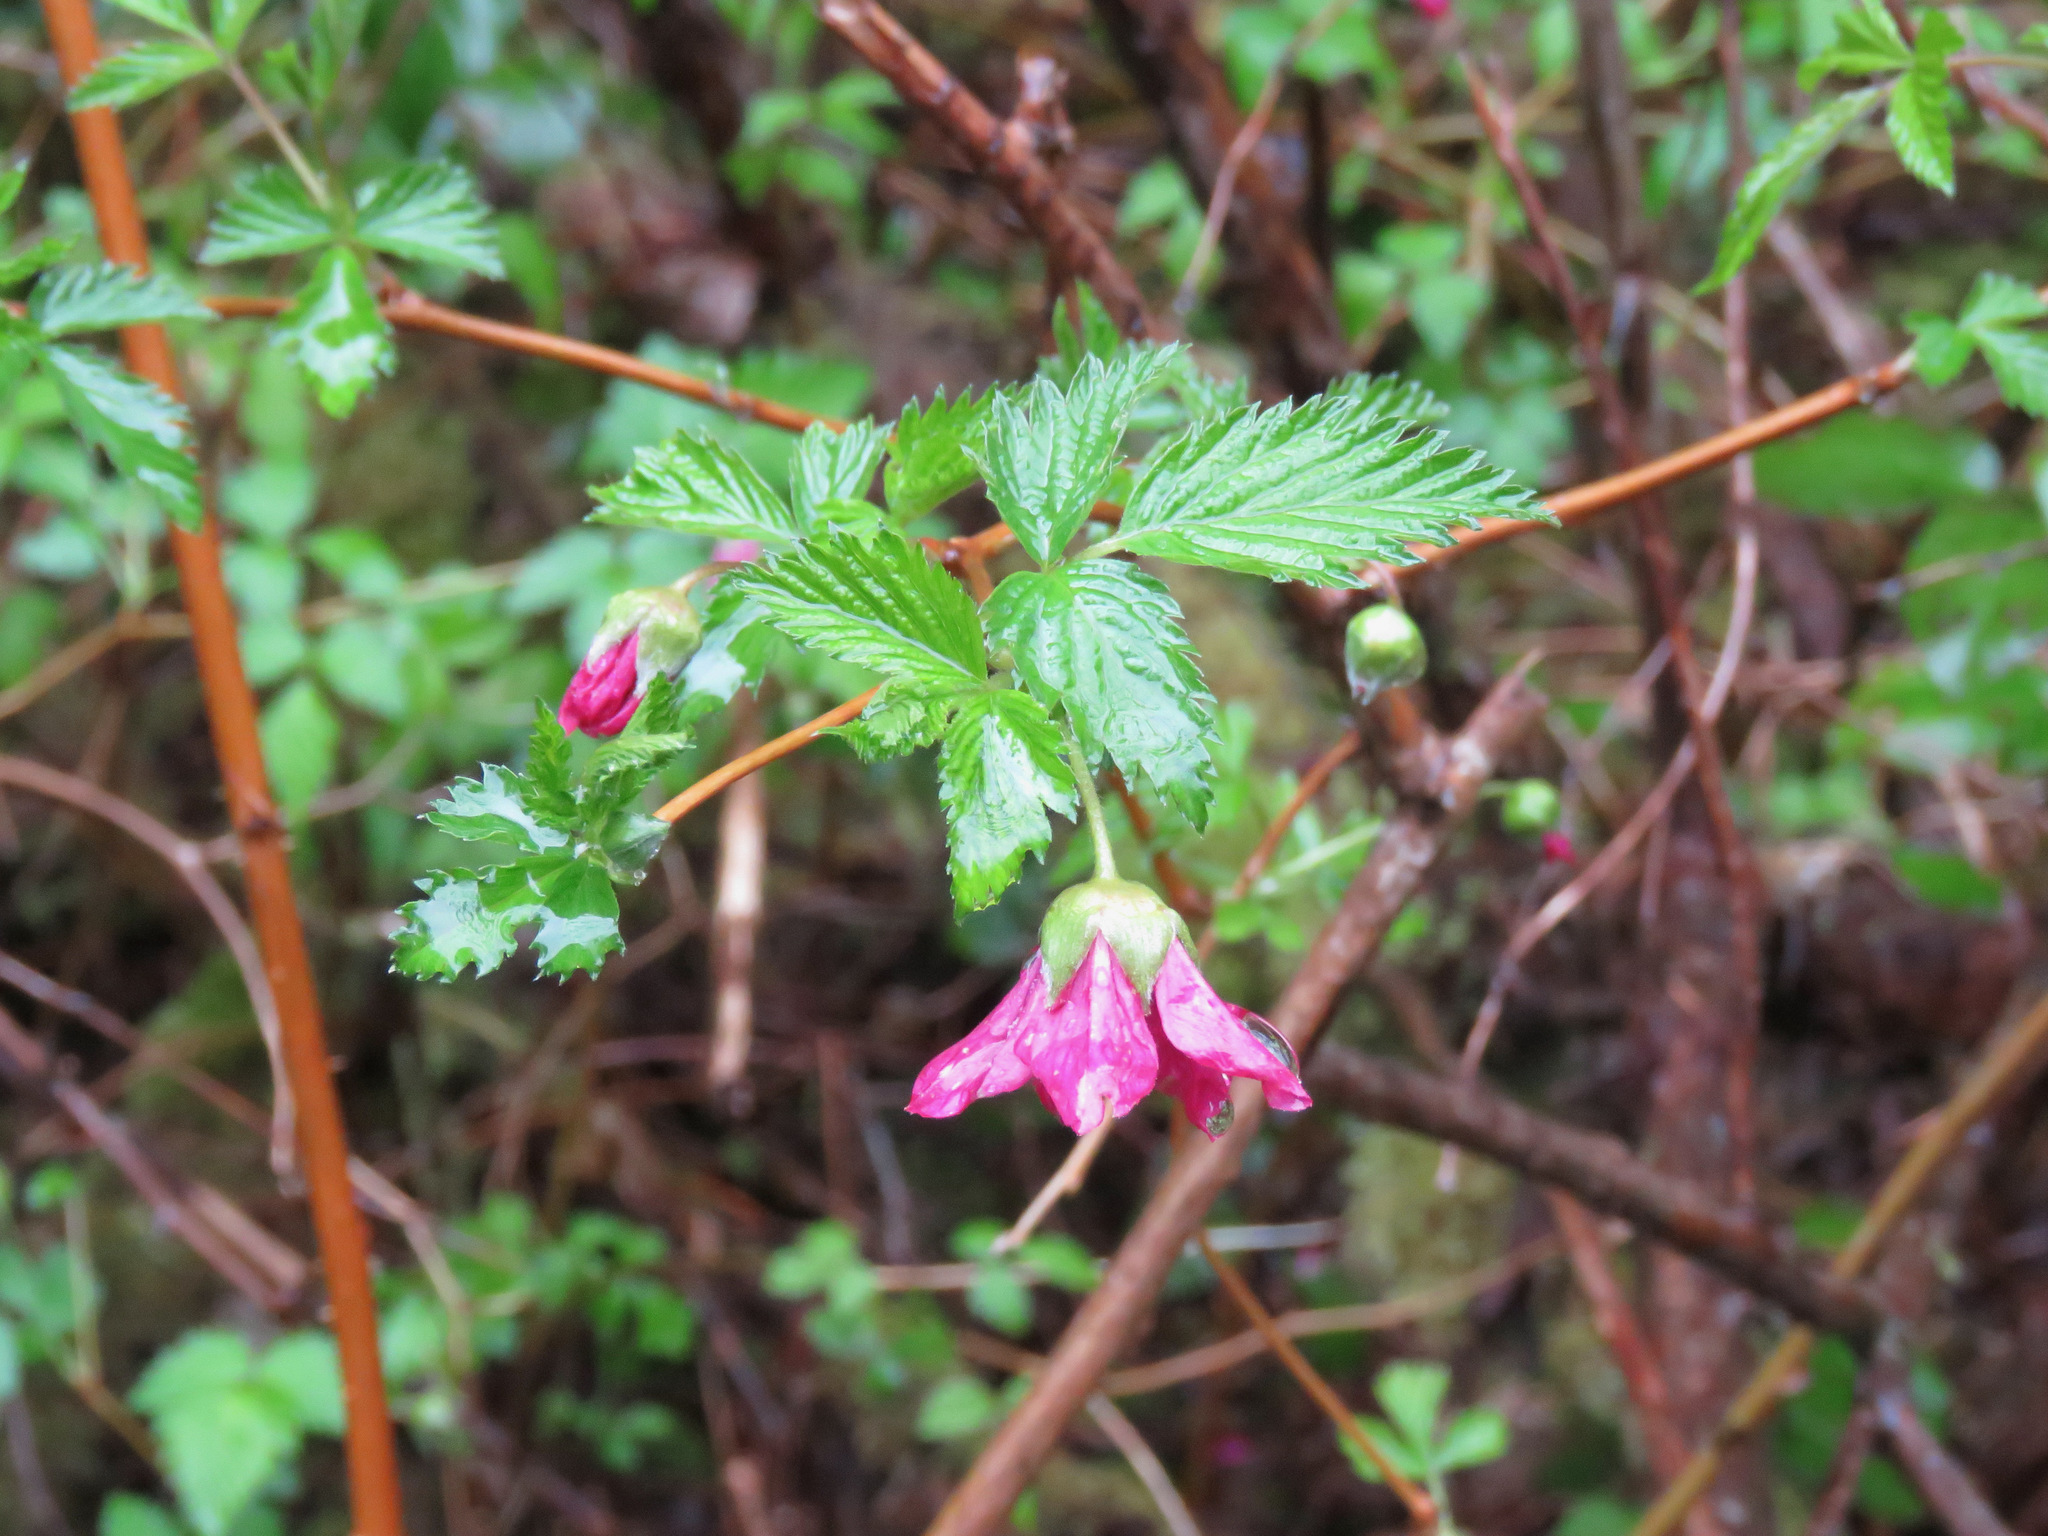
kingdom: Plantae
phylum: Tracheophyta
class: Magnoliopsida
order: Rosales
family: Rosaceae
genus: Rubus
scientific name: Rubus spectabilis
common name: Salmonberry
